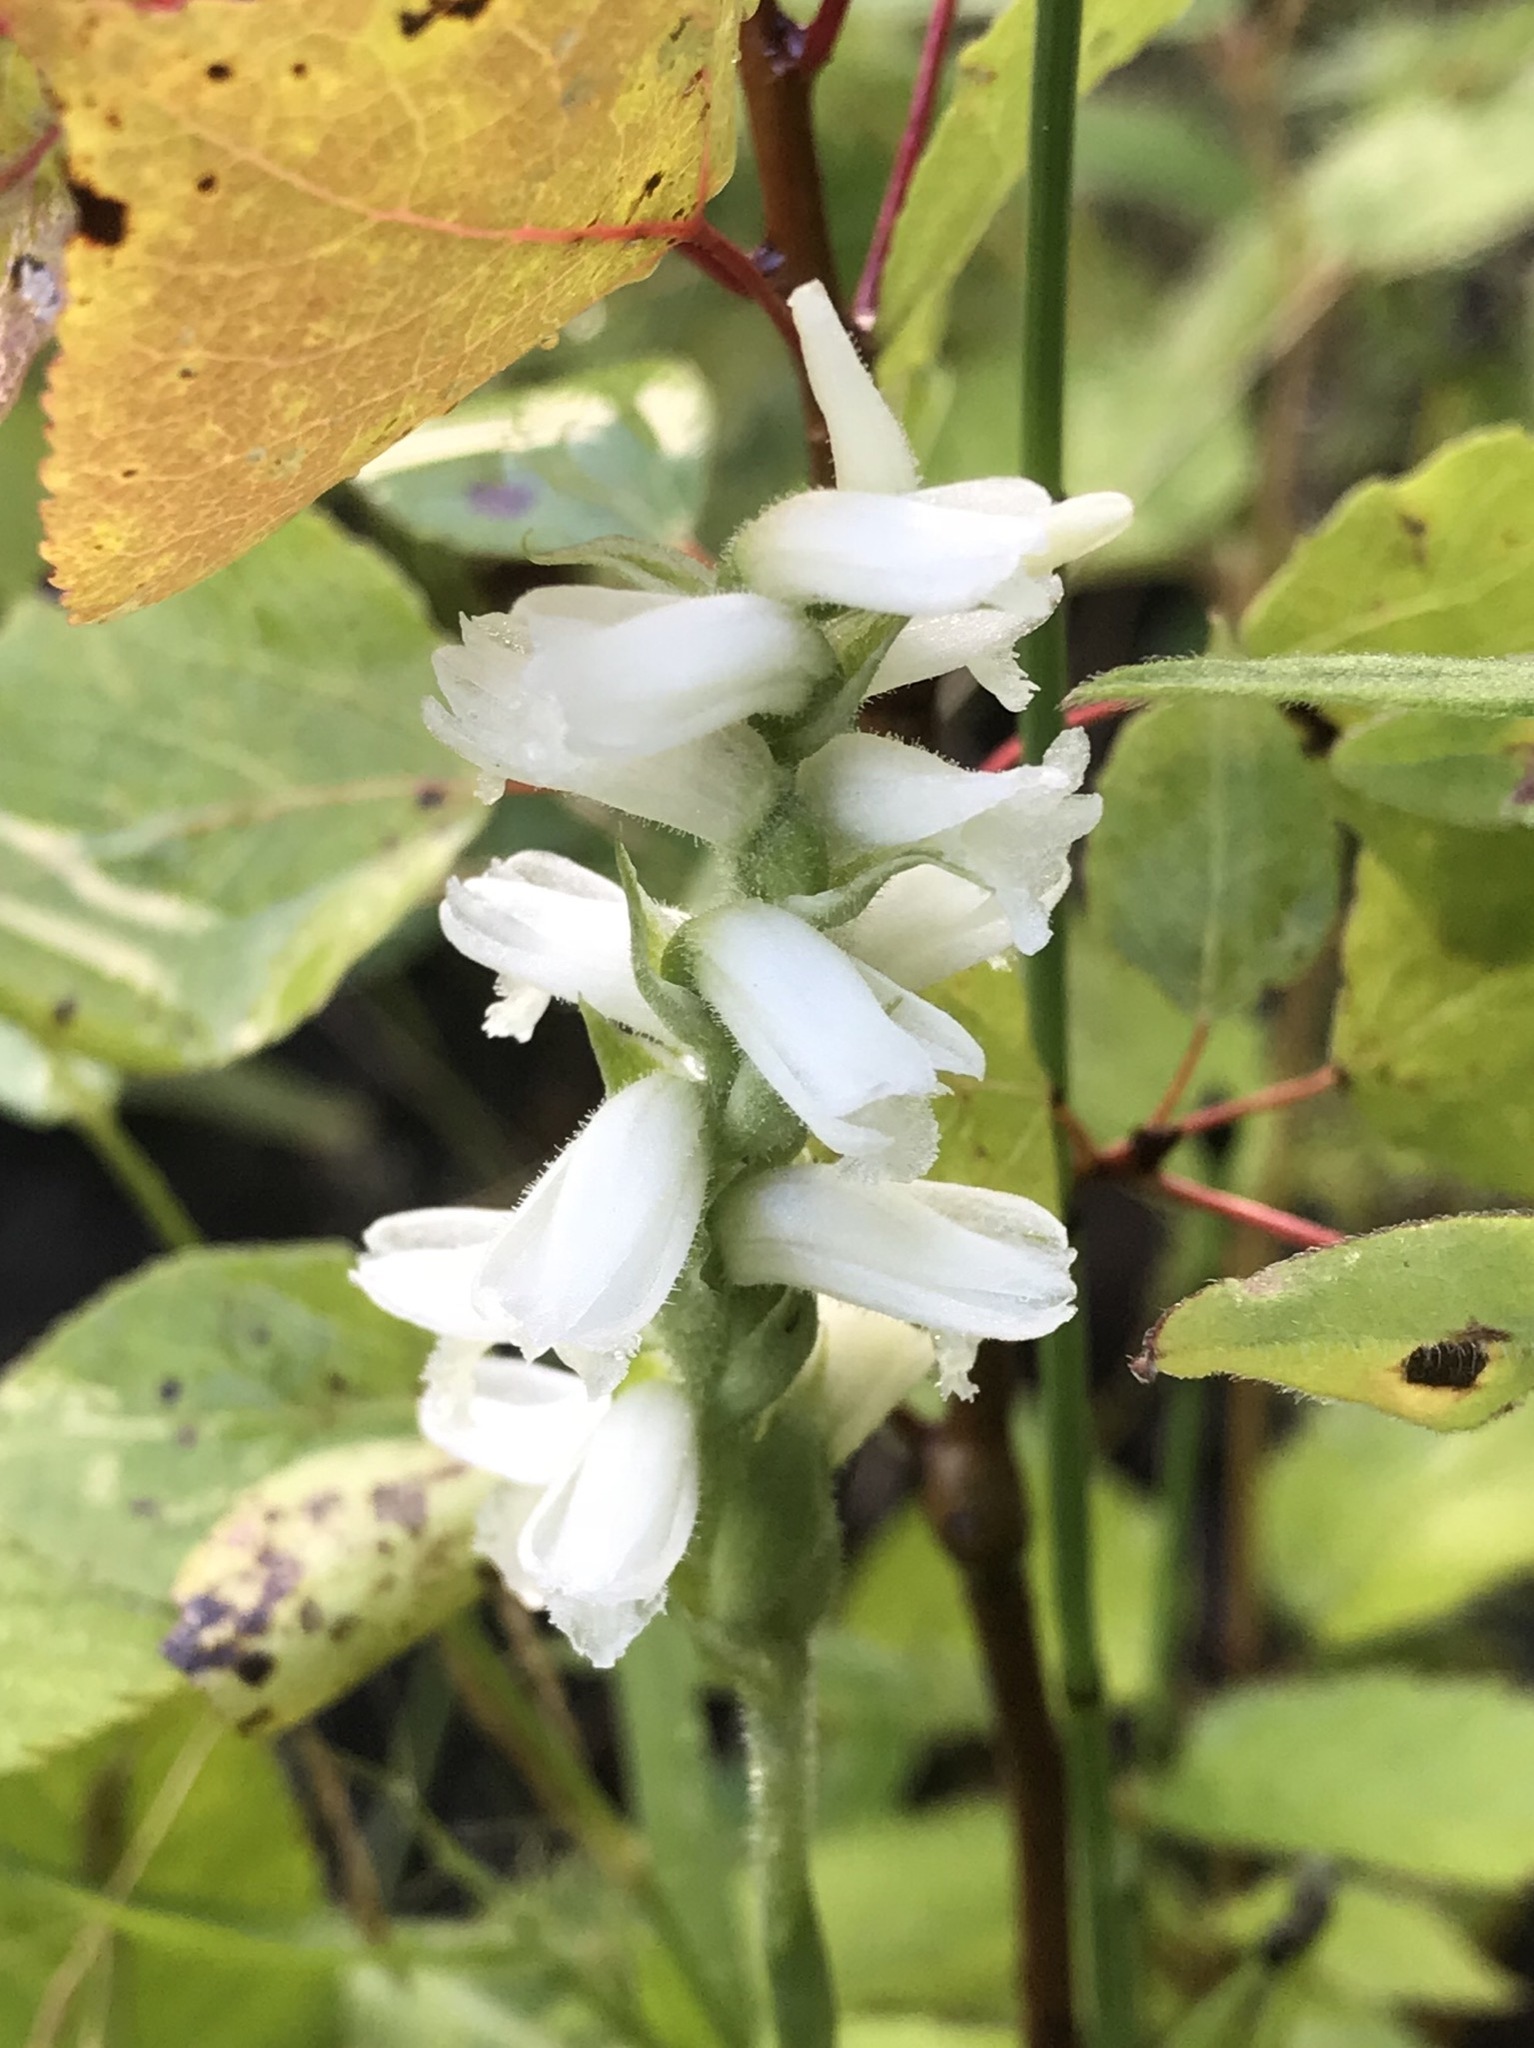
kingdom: Plantae
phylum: Tracheophyta
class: Liliopsida
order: Asparagales
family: Orchidaceae
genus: Spiranthes
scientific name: Spiranthes incurva
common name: Sphinx ladies'-tresses
